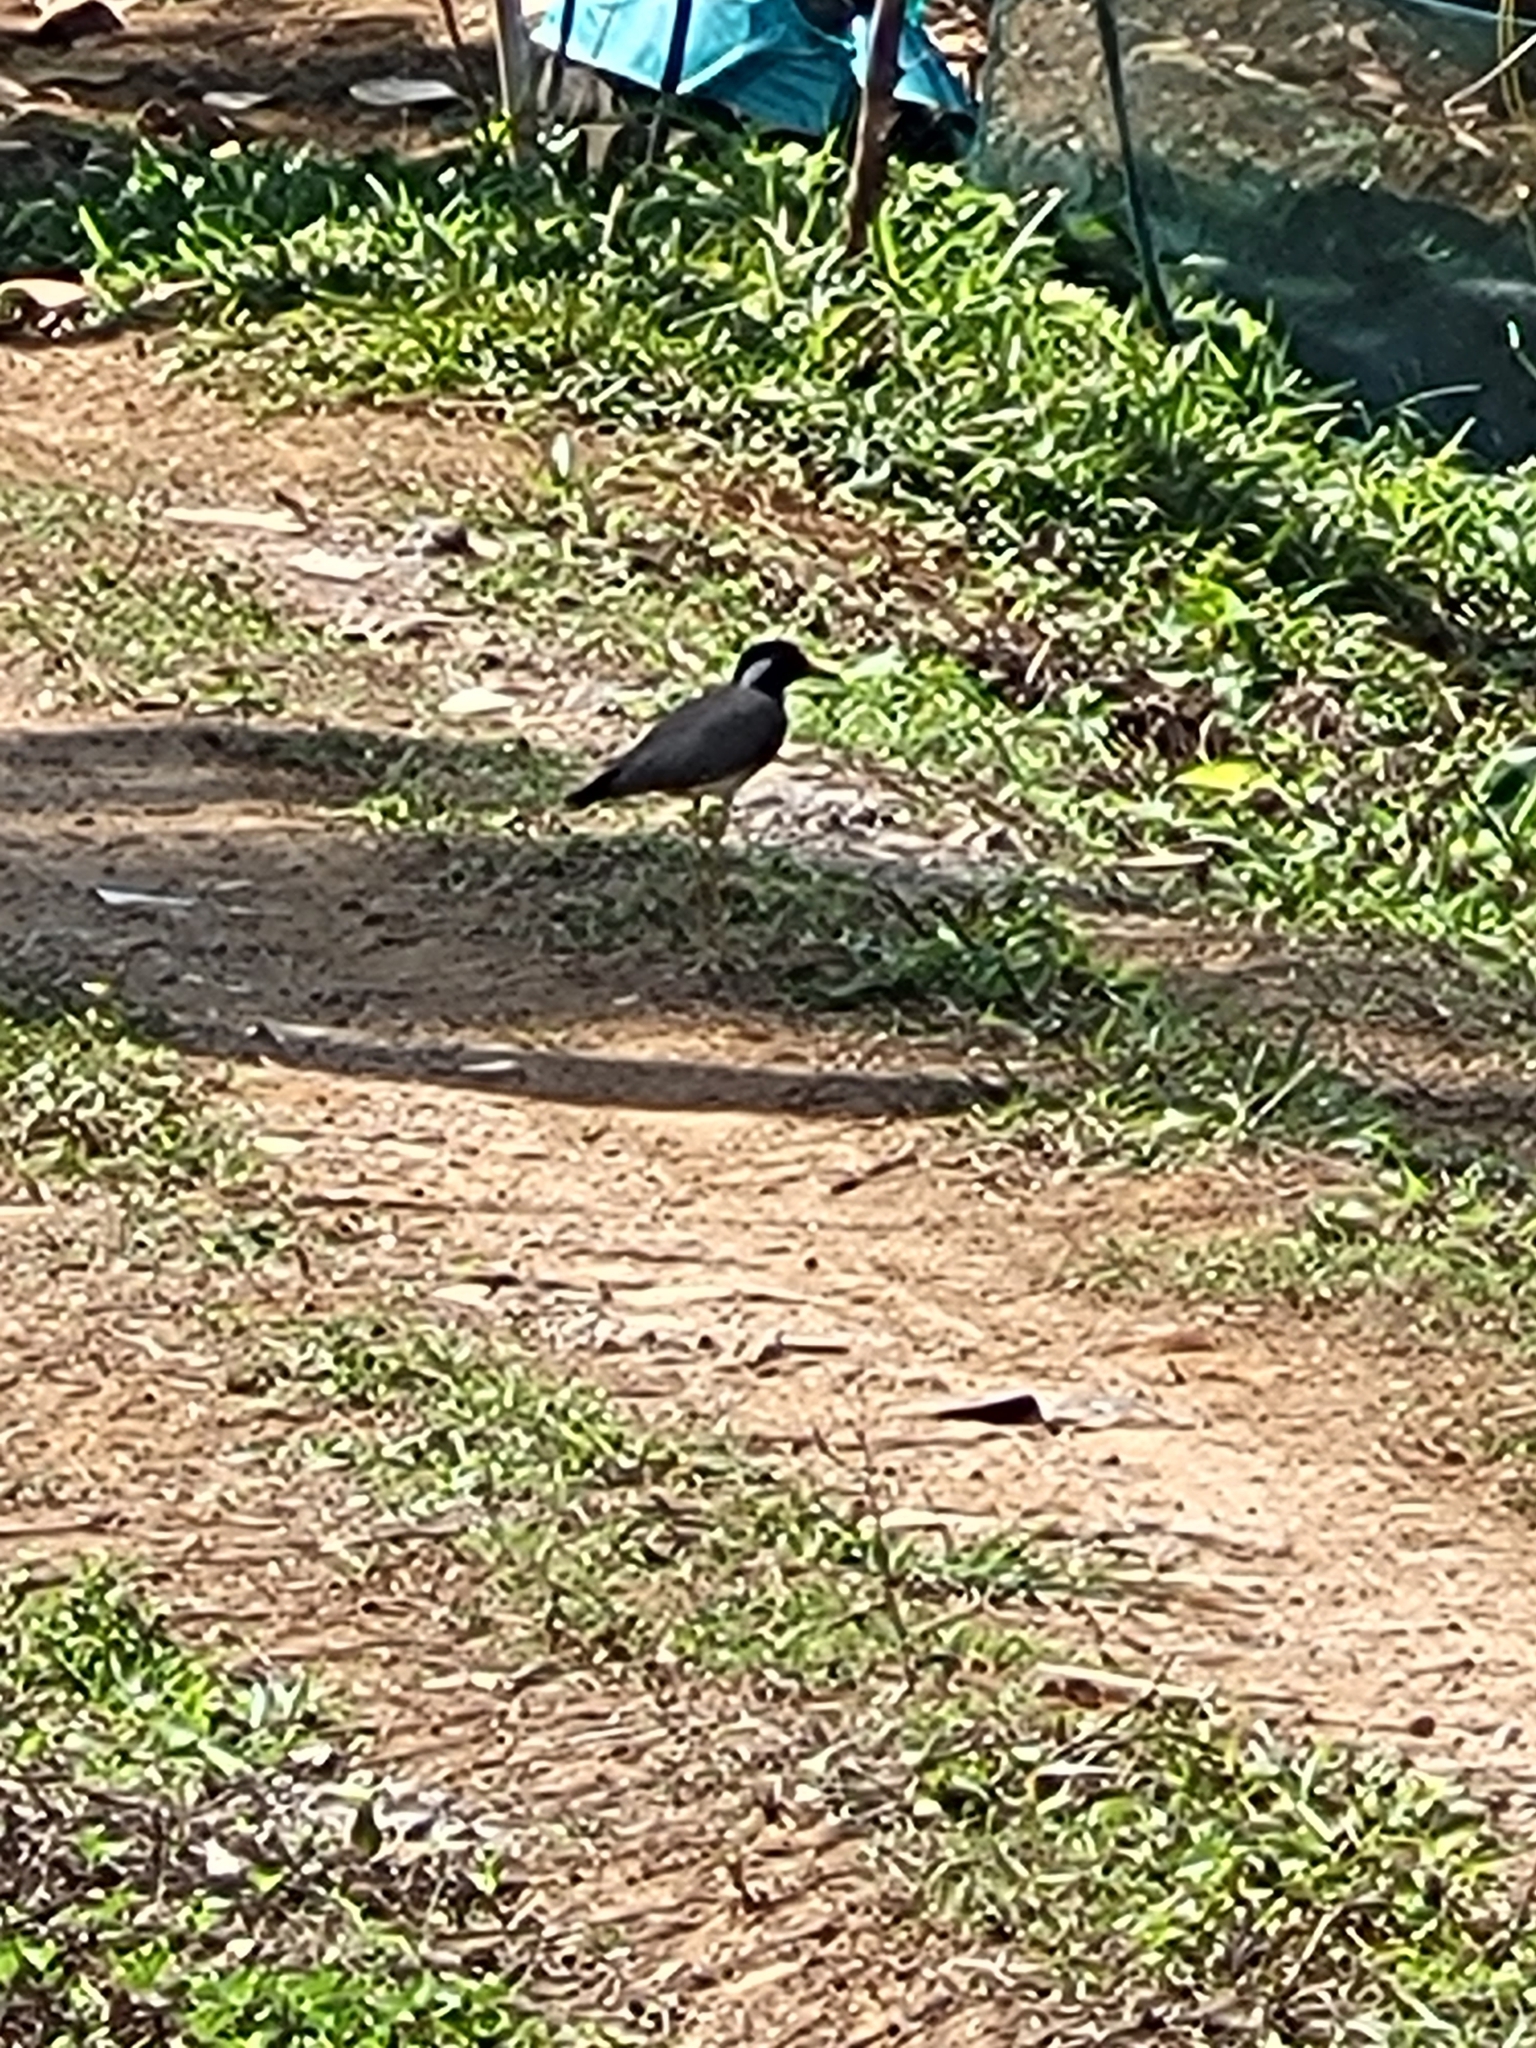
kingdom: Animalia
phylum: Chordata
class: Aves
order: Charadriiformes
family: Charadriidae
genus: Vanellus
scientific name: Vanellus indicus
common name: Red-wattled lapwing
